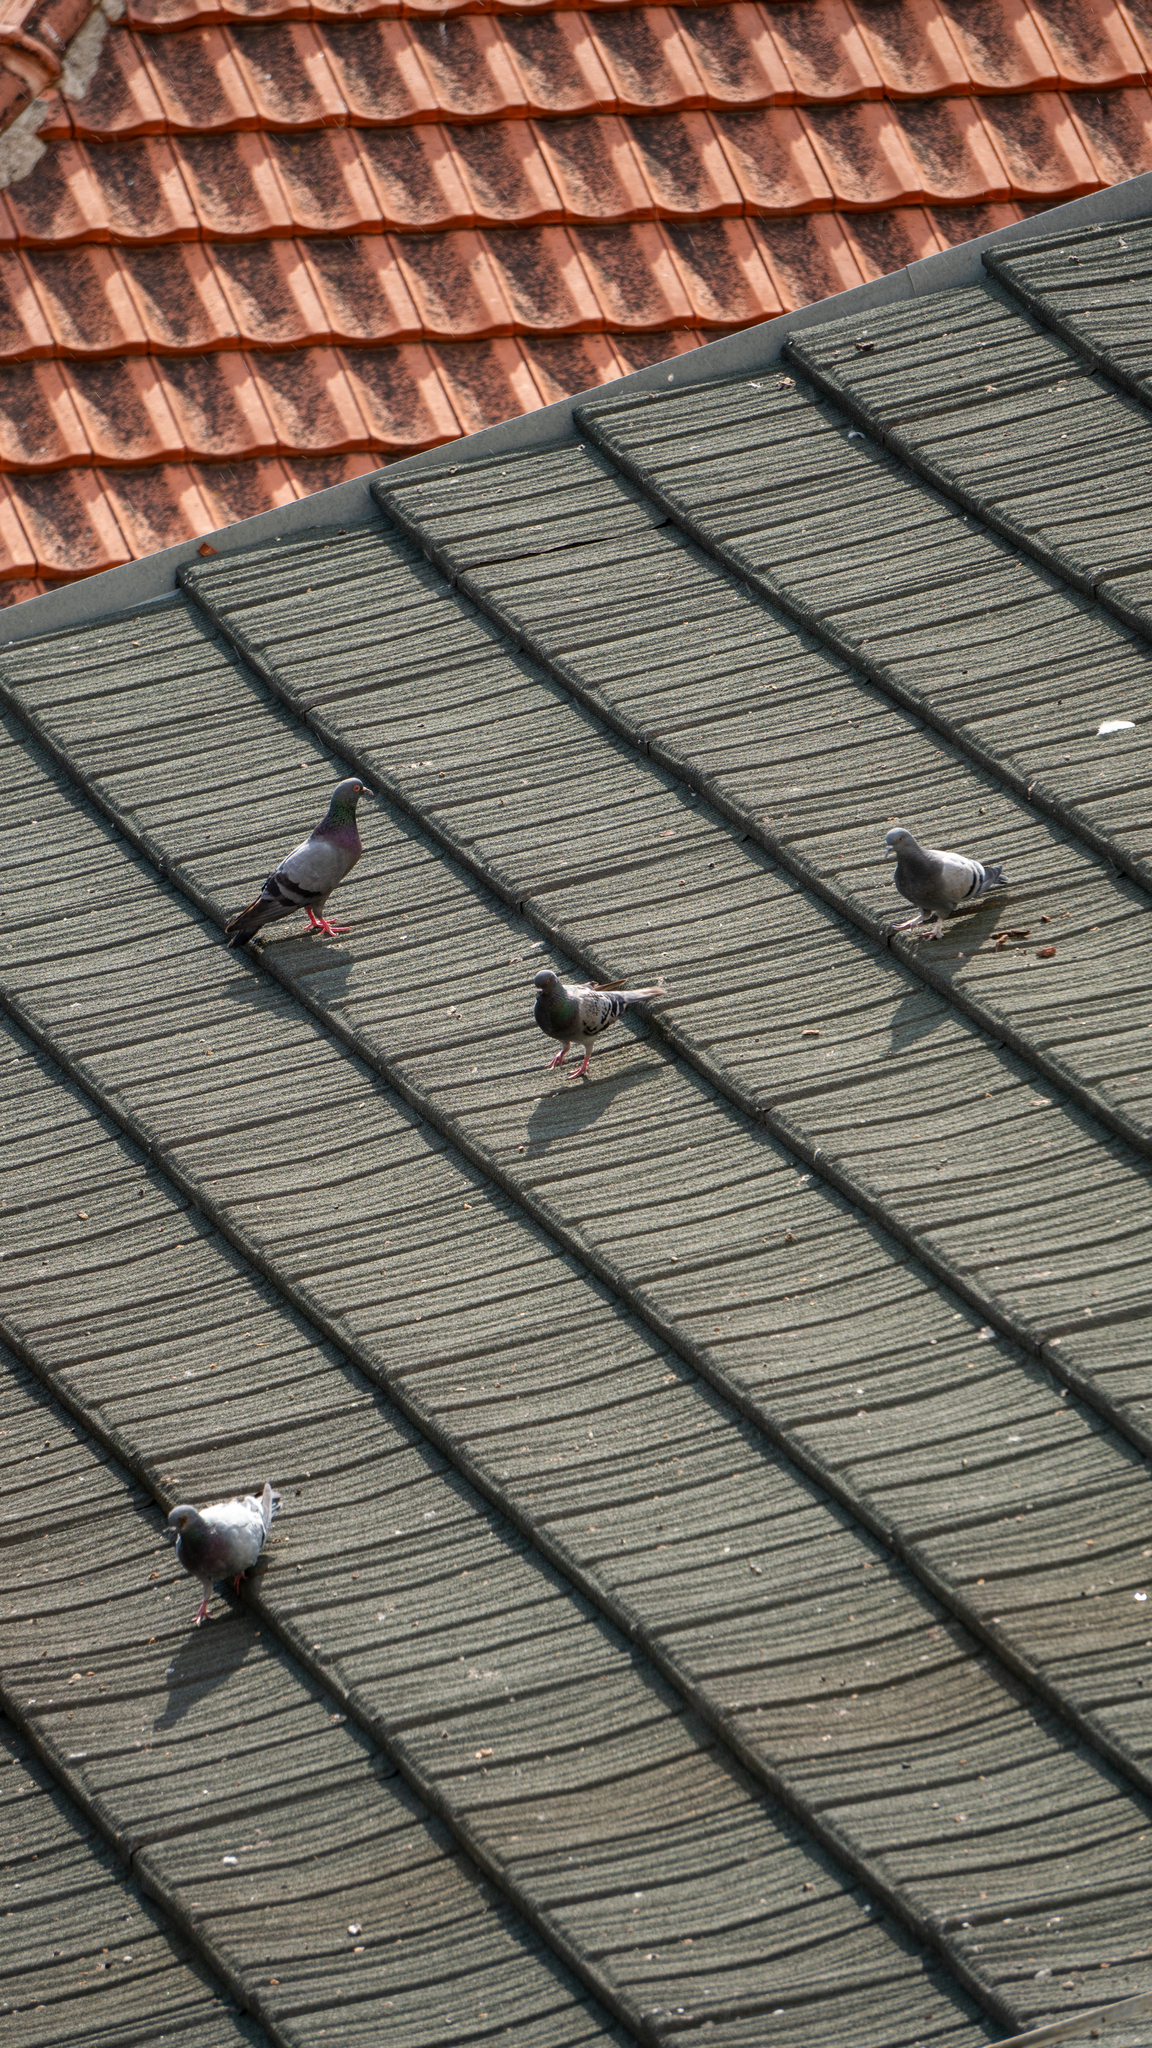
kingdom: Animalia
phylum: Chordata
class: Aves
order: Columbiformes
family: Columbidae
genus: Columba
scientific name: Columba livia
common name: Rock pigeon
